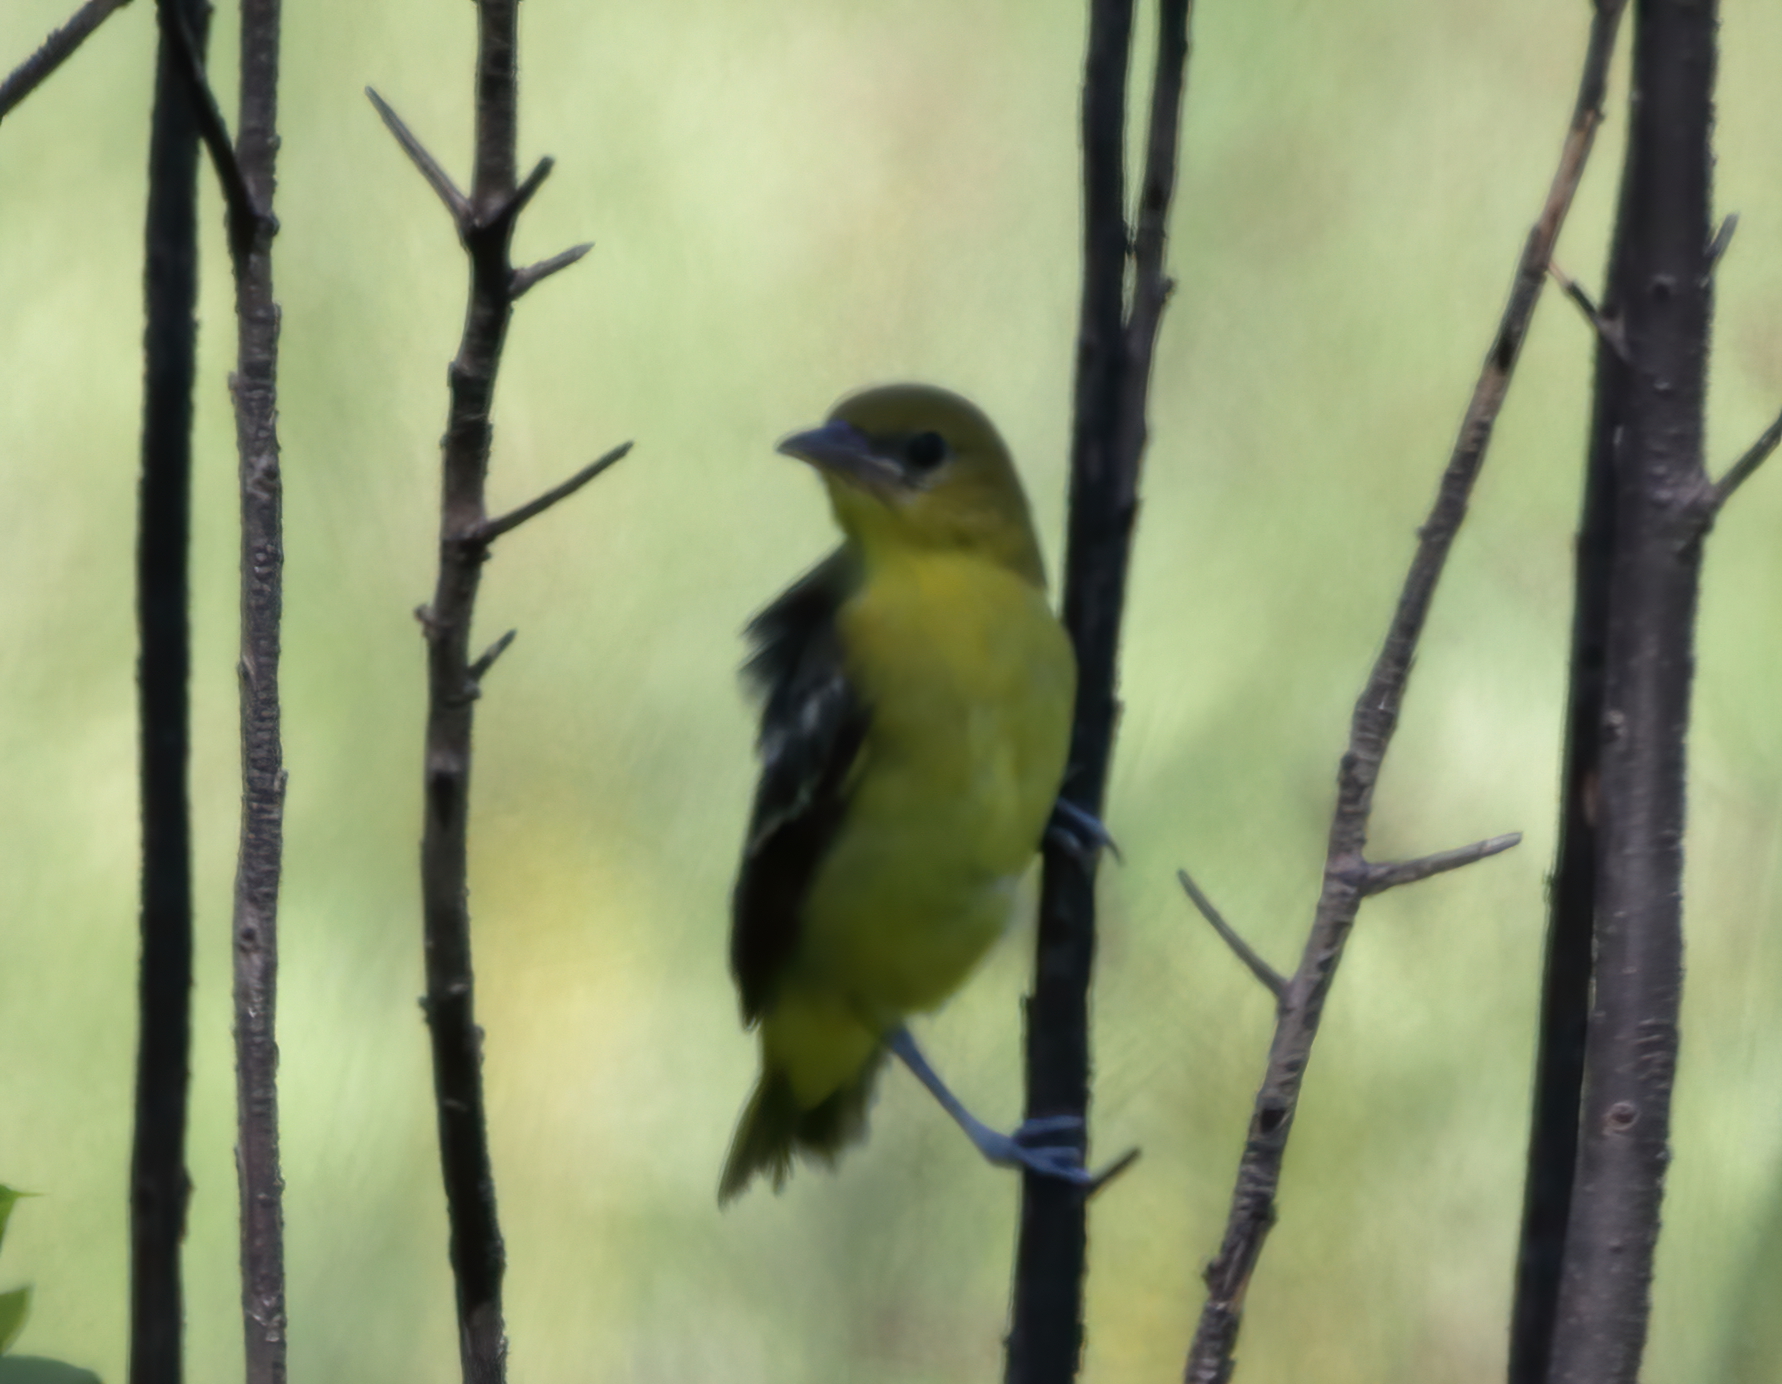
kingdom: Animalia
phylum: Chordata
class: Aves
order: Passeriformes
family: Icteridae
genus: Icterus
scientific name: Icterus spurius
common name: Orchard oriole
